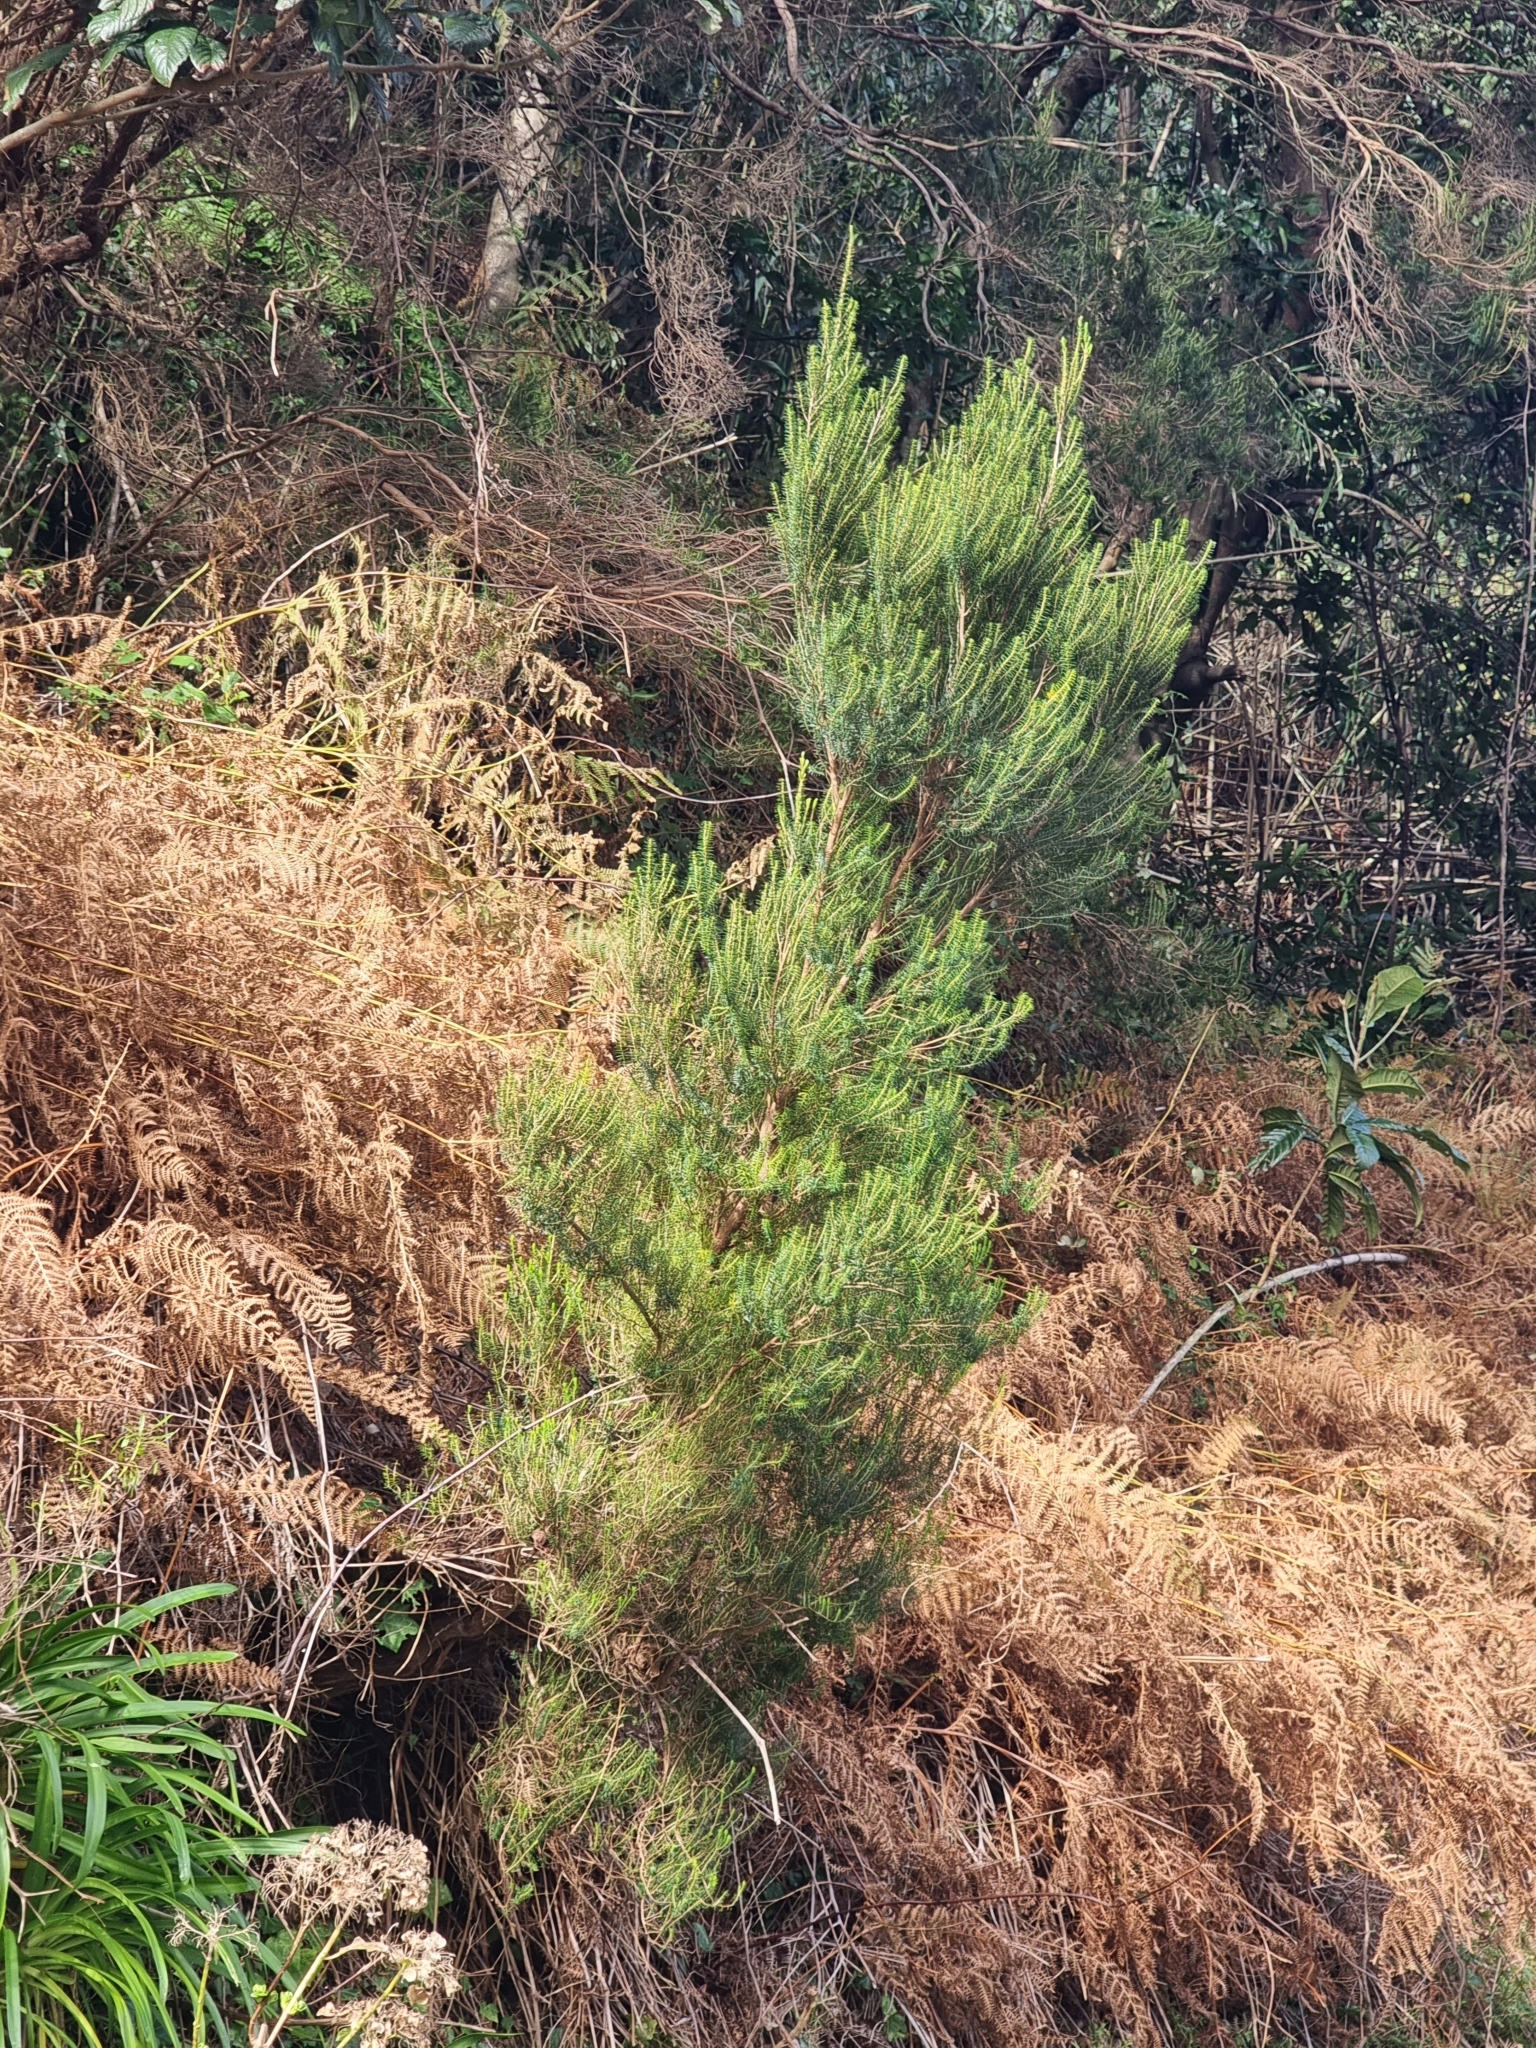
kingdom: Plantae
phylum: Tracheophyta
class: Magnoliopsida
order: Ericales
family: Ericaceae
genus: Erica
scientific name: Erica platycodon
